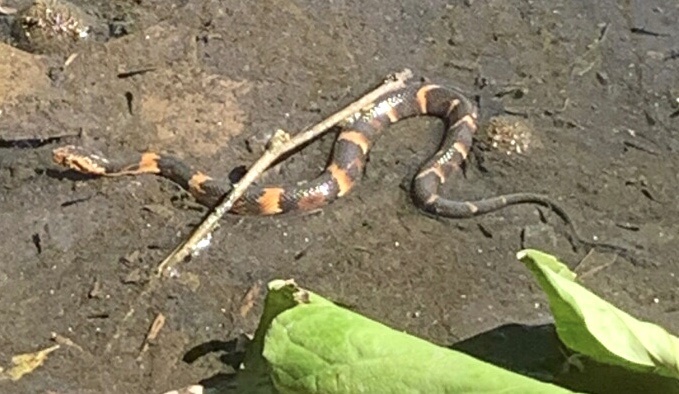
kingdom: Animalia
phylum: Chordata
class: Squamata
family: Colubridae
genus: Nerodia
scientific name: Nerodia fasciata
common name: Southern water snake
